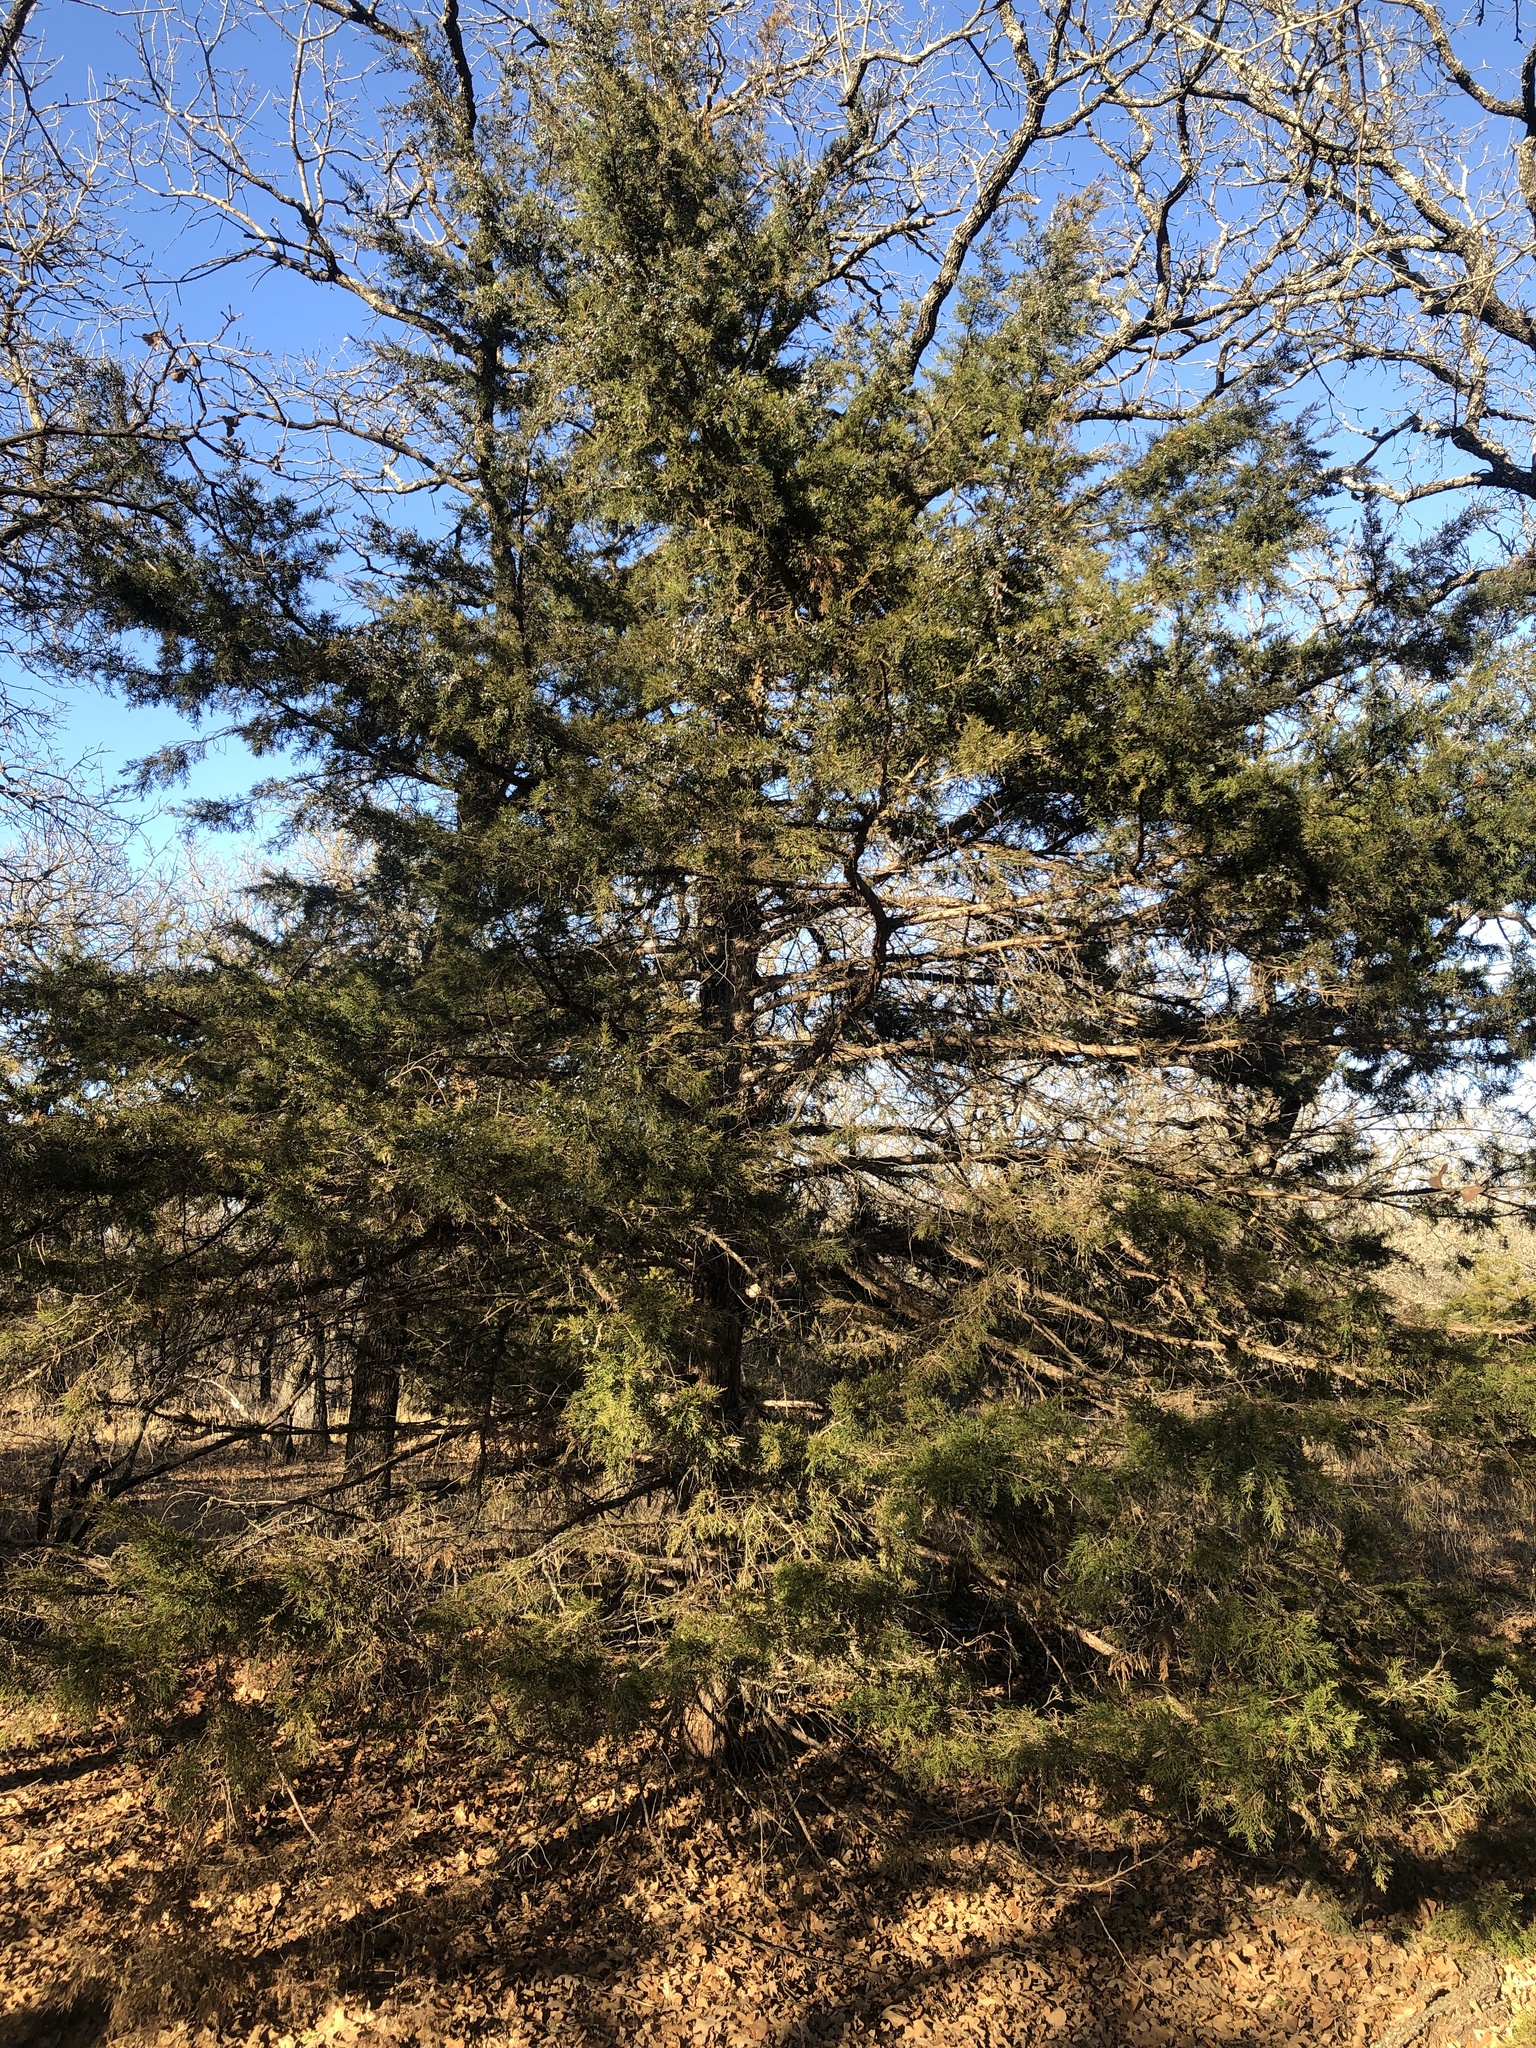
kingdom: Plantae
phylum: Tracheophyta
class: Pinopsida
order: Pinales
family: Cupressaceae
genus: Juniperus
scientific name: Juniperus virginiana
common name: Red juniper
